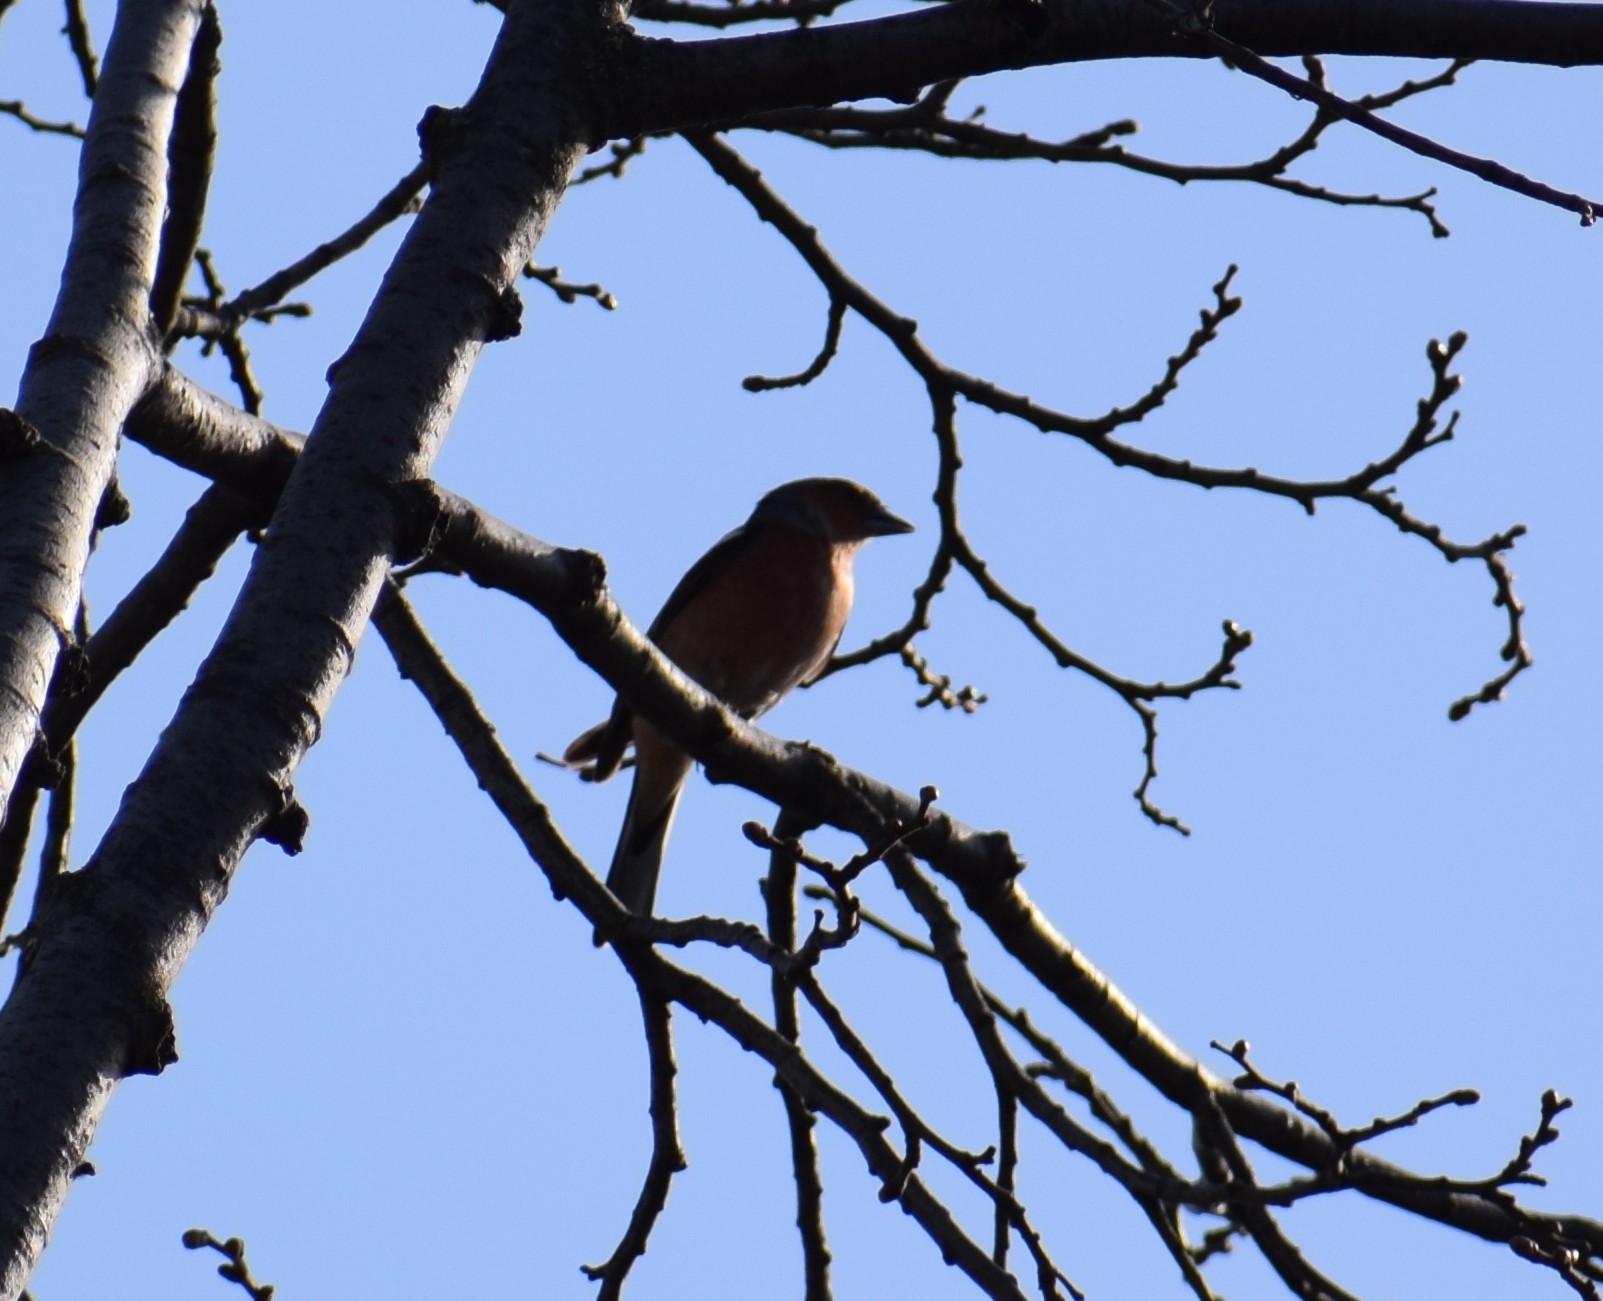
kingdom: Animalia
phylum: Chordata
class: Aves
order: Passeriformes
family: Fringillidae
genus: Fringilla
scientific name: Fringilla coelebs
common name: Common chaffinch
